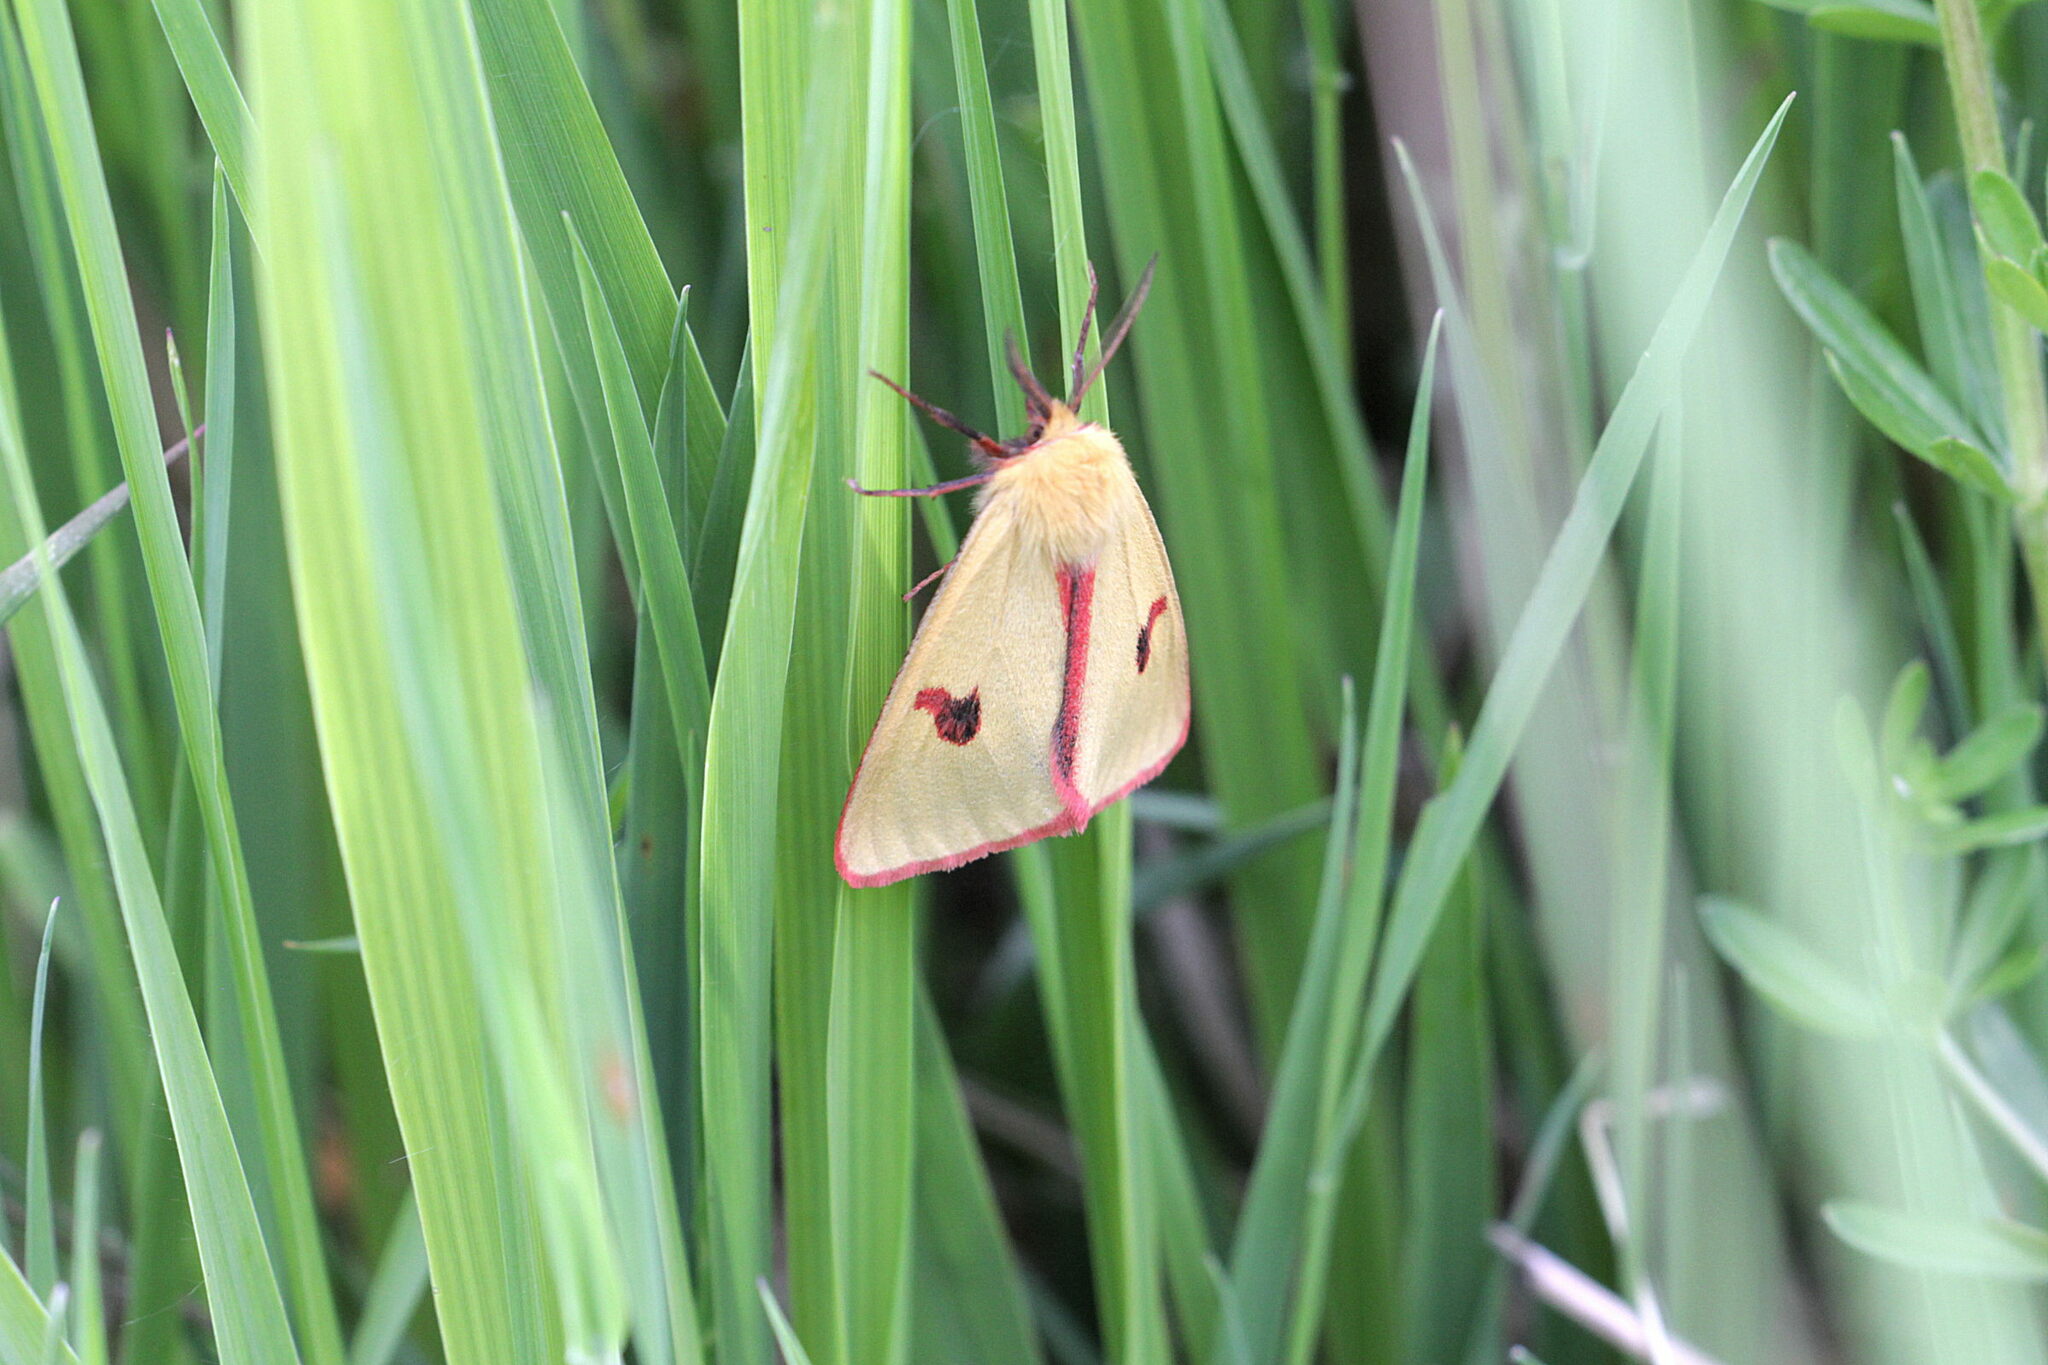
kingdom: Animalia
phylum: Arthropoda
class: Insecta
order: Lepidoptera
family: Erebidae
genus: Diacrisia
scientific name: Diacrisia sannio
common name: Clouded buff
